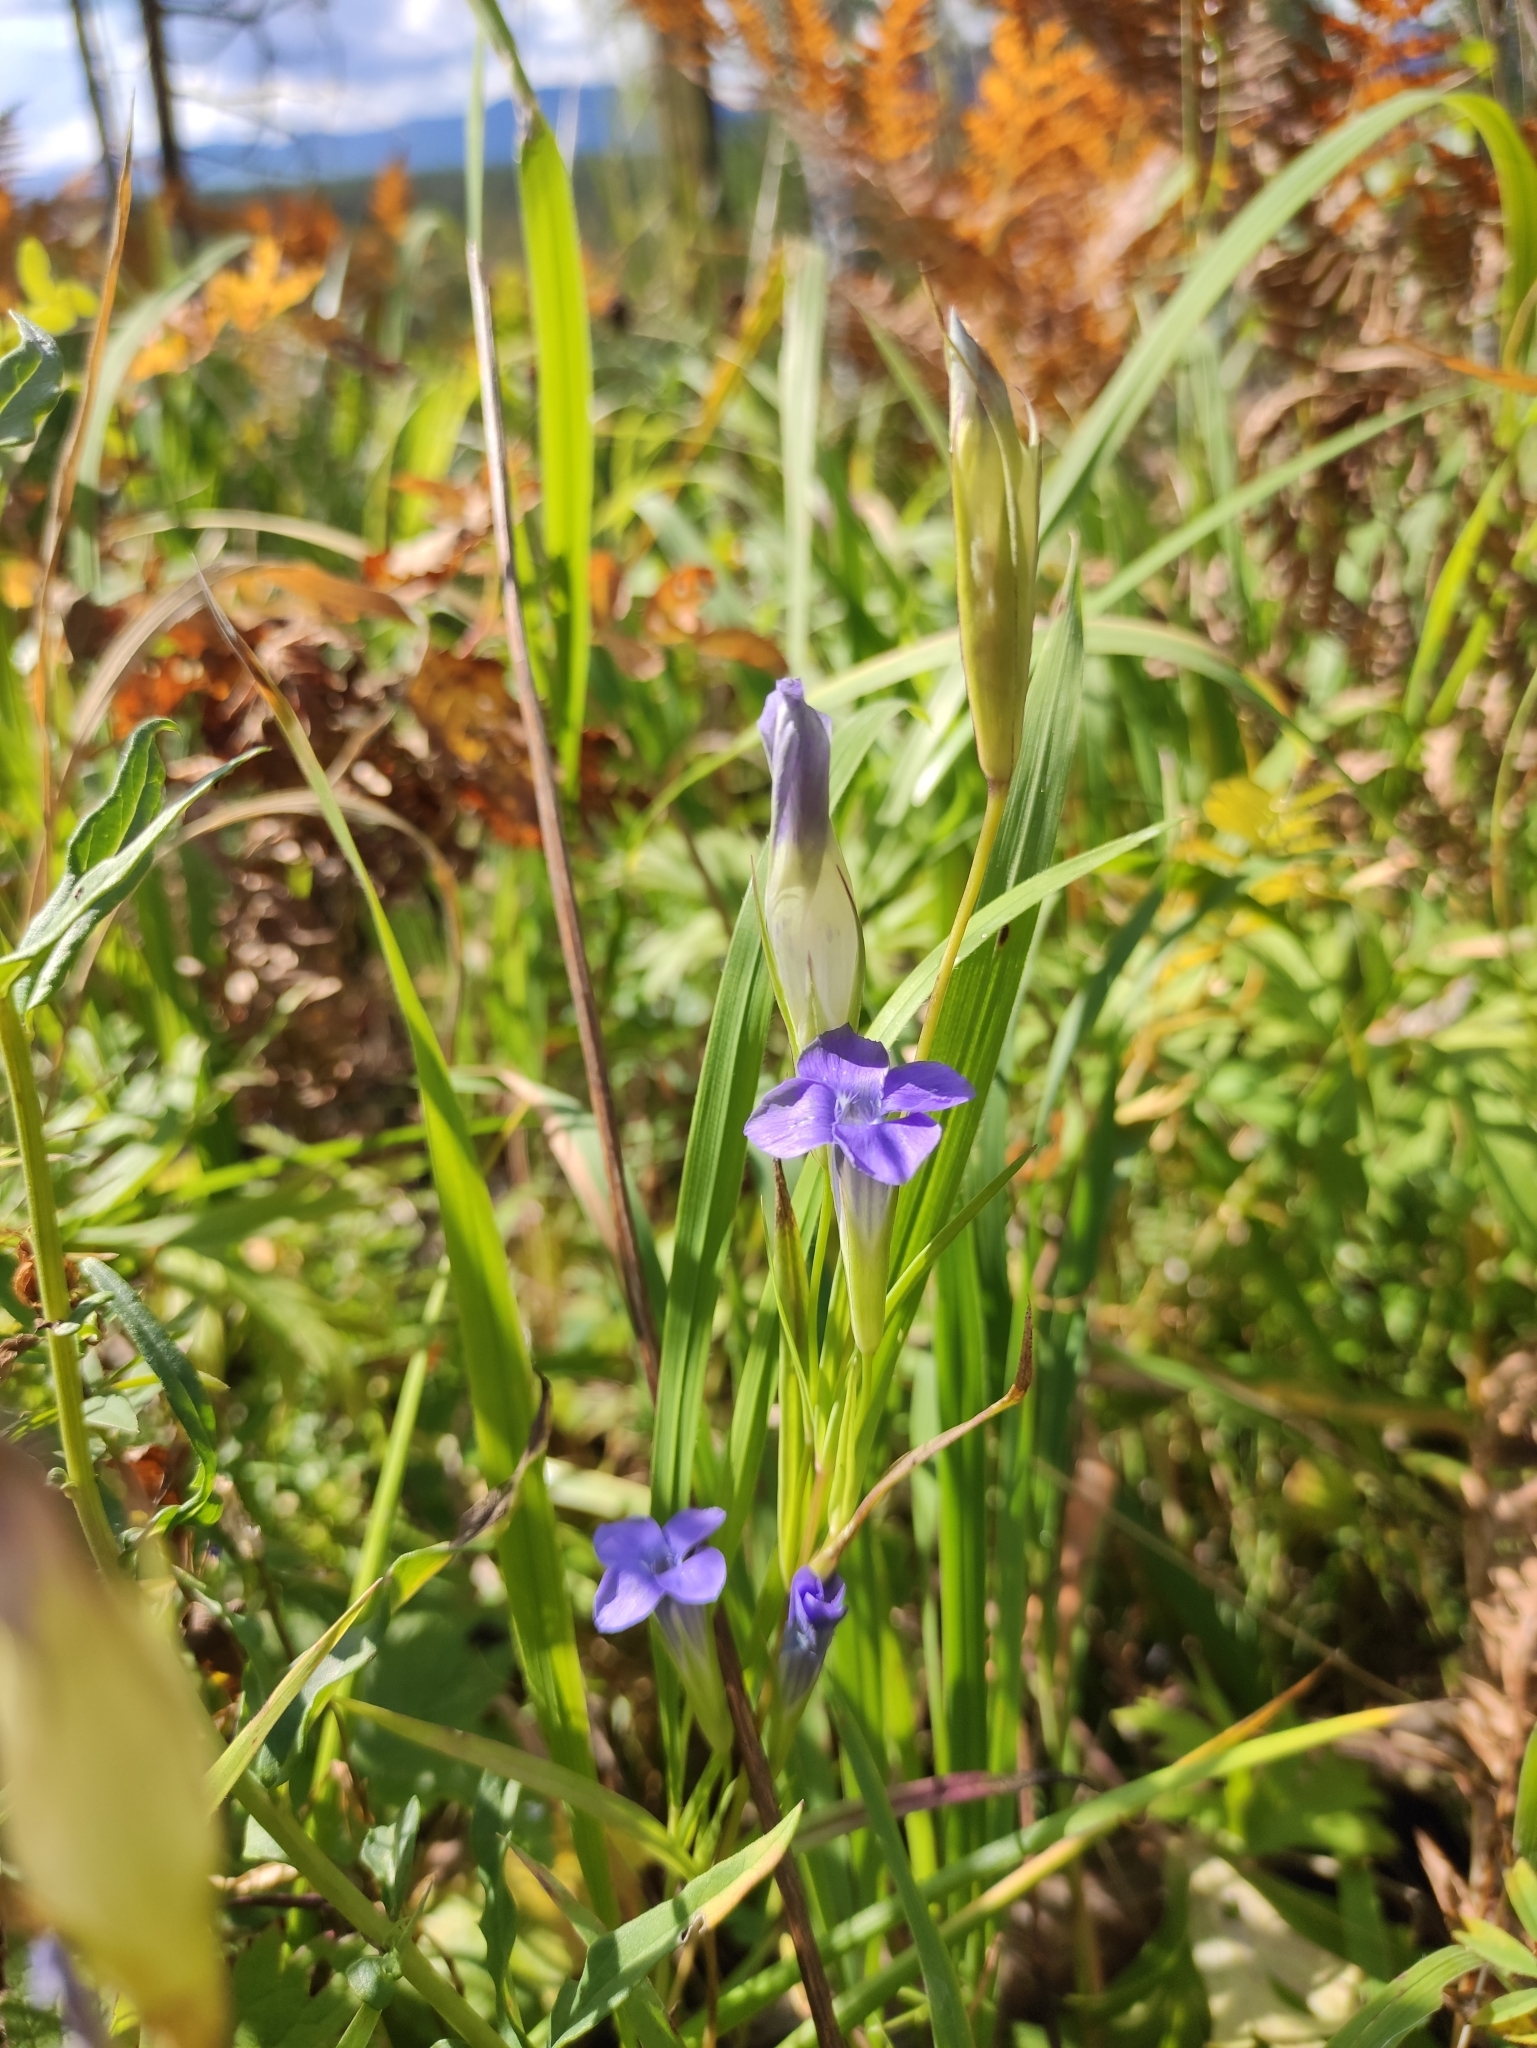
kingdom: Plantae
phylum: Tracheophyta
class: Magnoliopsida
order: Gentianales
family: Gentianaceae
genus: Gentianopsis
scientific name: Gentianopsis barbata
